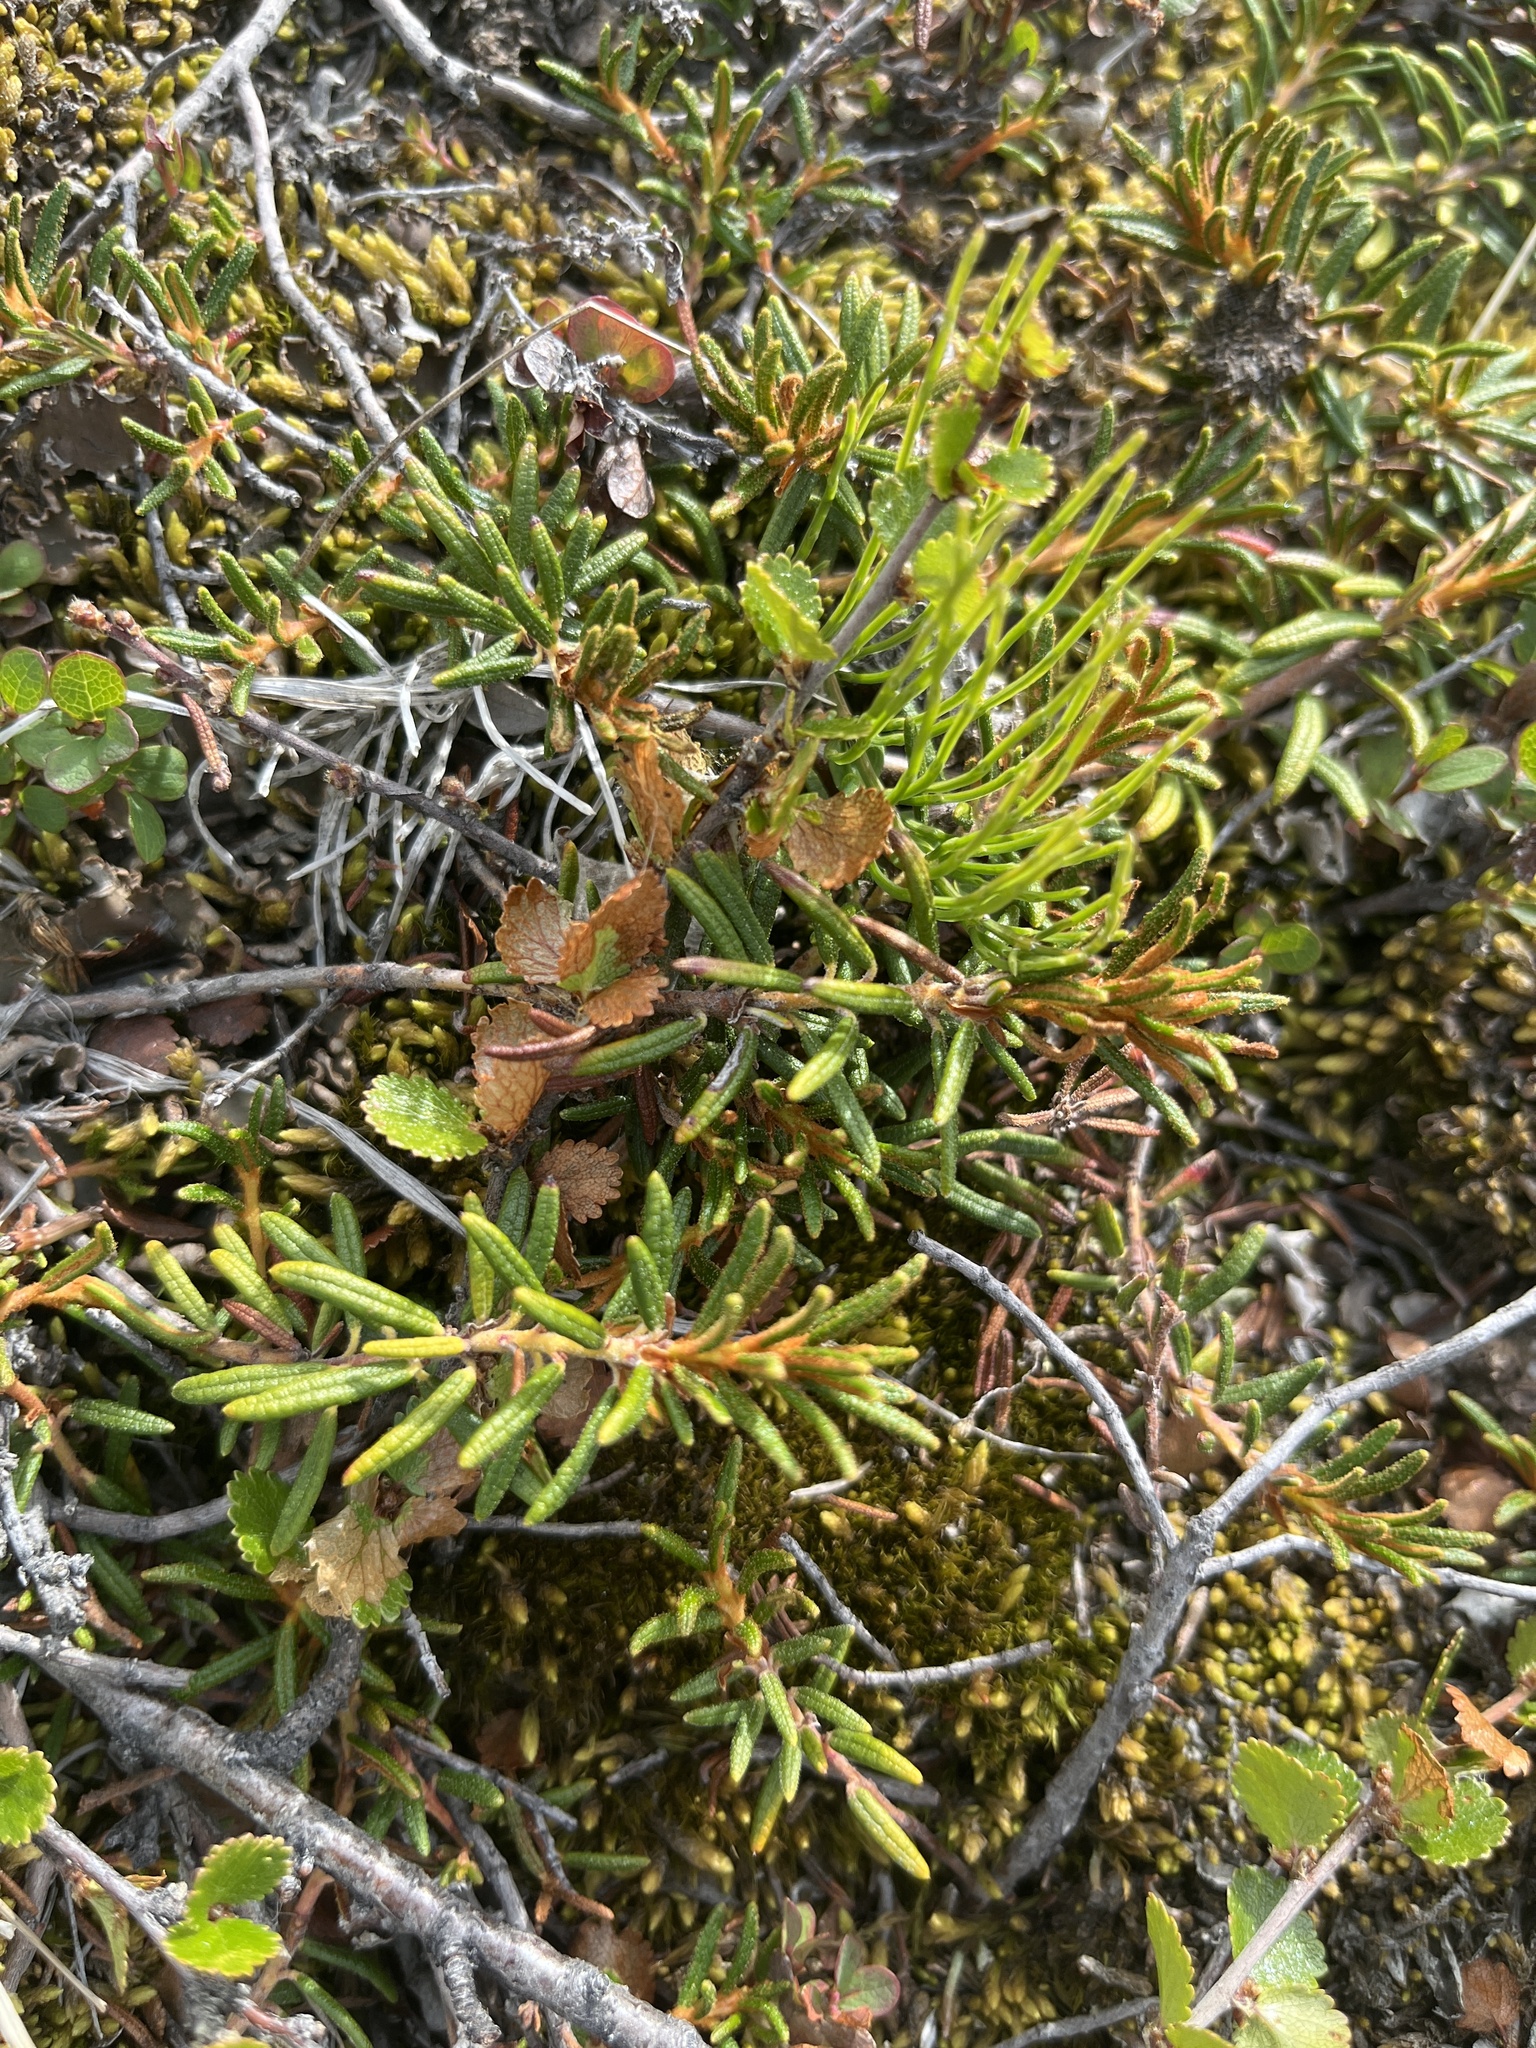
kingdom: Plantae
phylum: Tracheophyta
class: Magnoliopsida
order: Ericales
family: Ericaceae
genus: Rhododendron
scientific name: Rhododendron tomentosum
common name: Marsh labrador tea
